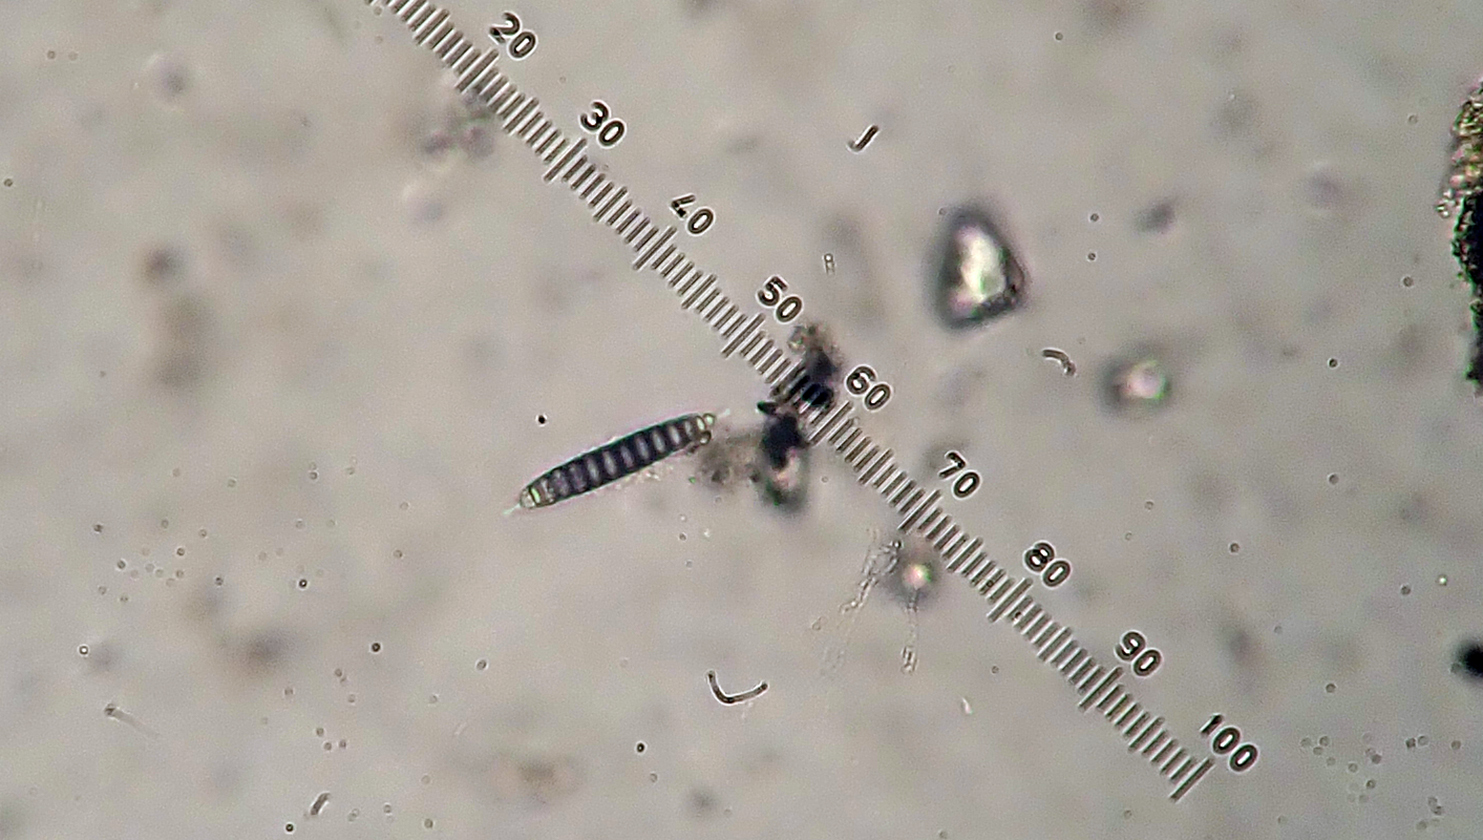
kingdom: Fungi
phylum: Ascomycota
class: Lecanoromycetes
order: Ostropales
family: Graphidaceae
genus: Halegrapha
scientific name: Halegrapha mucronata
